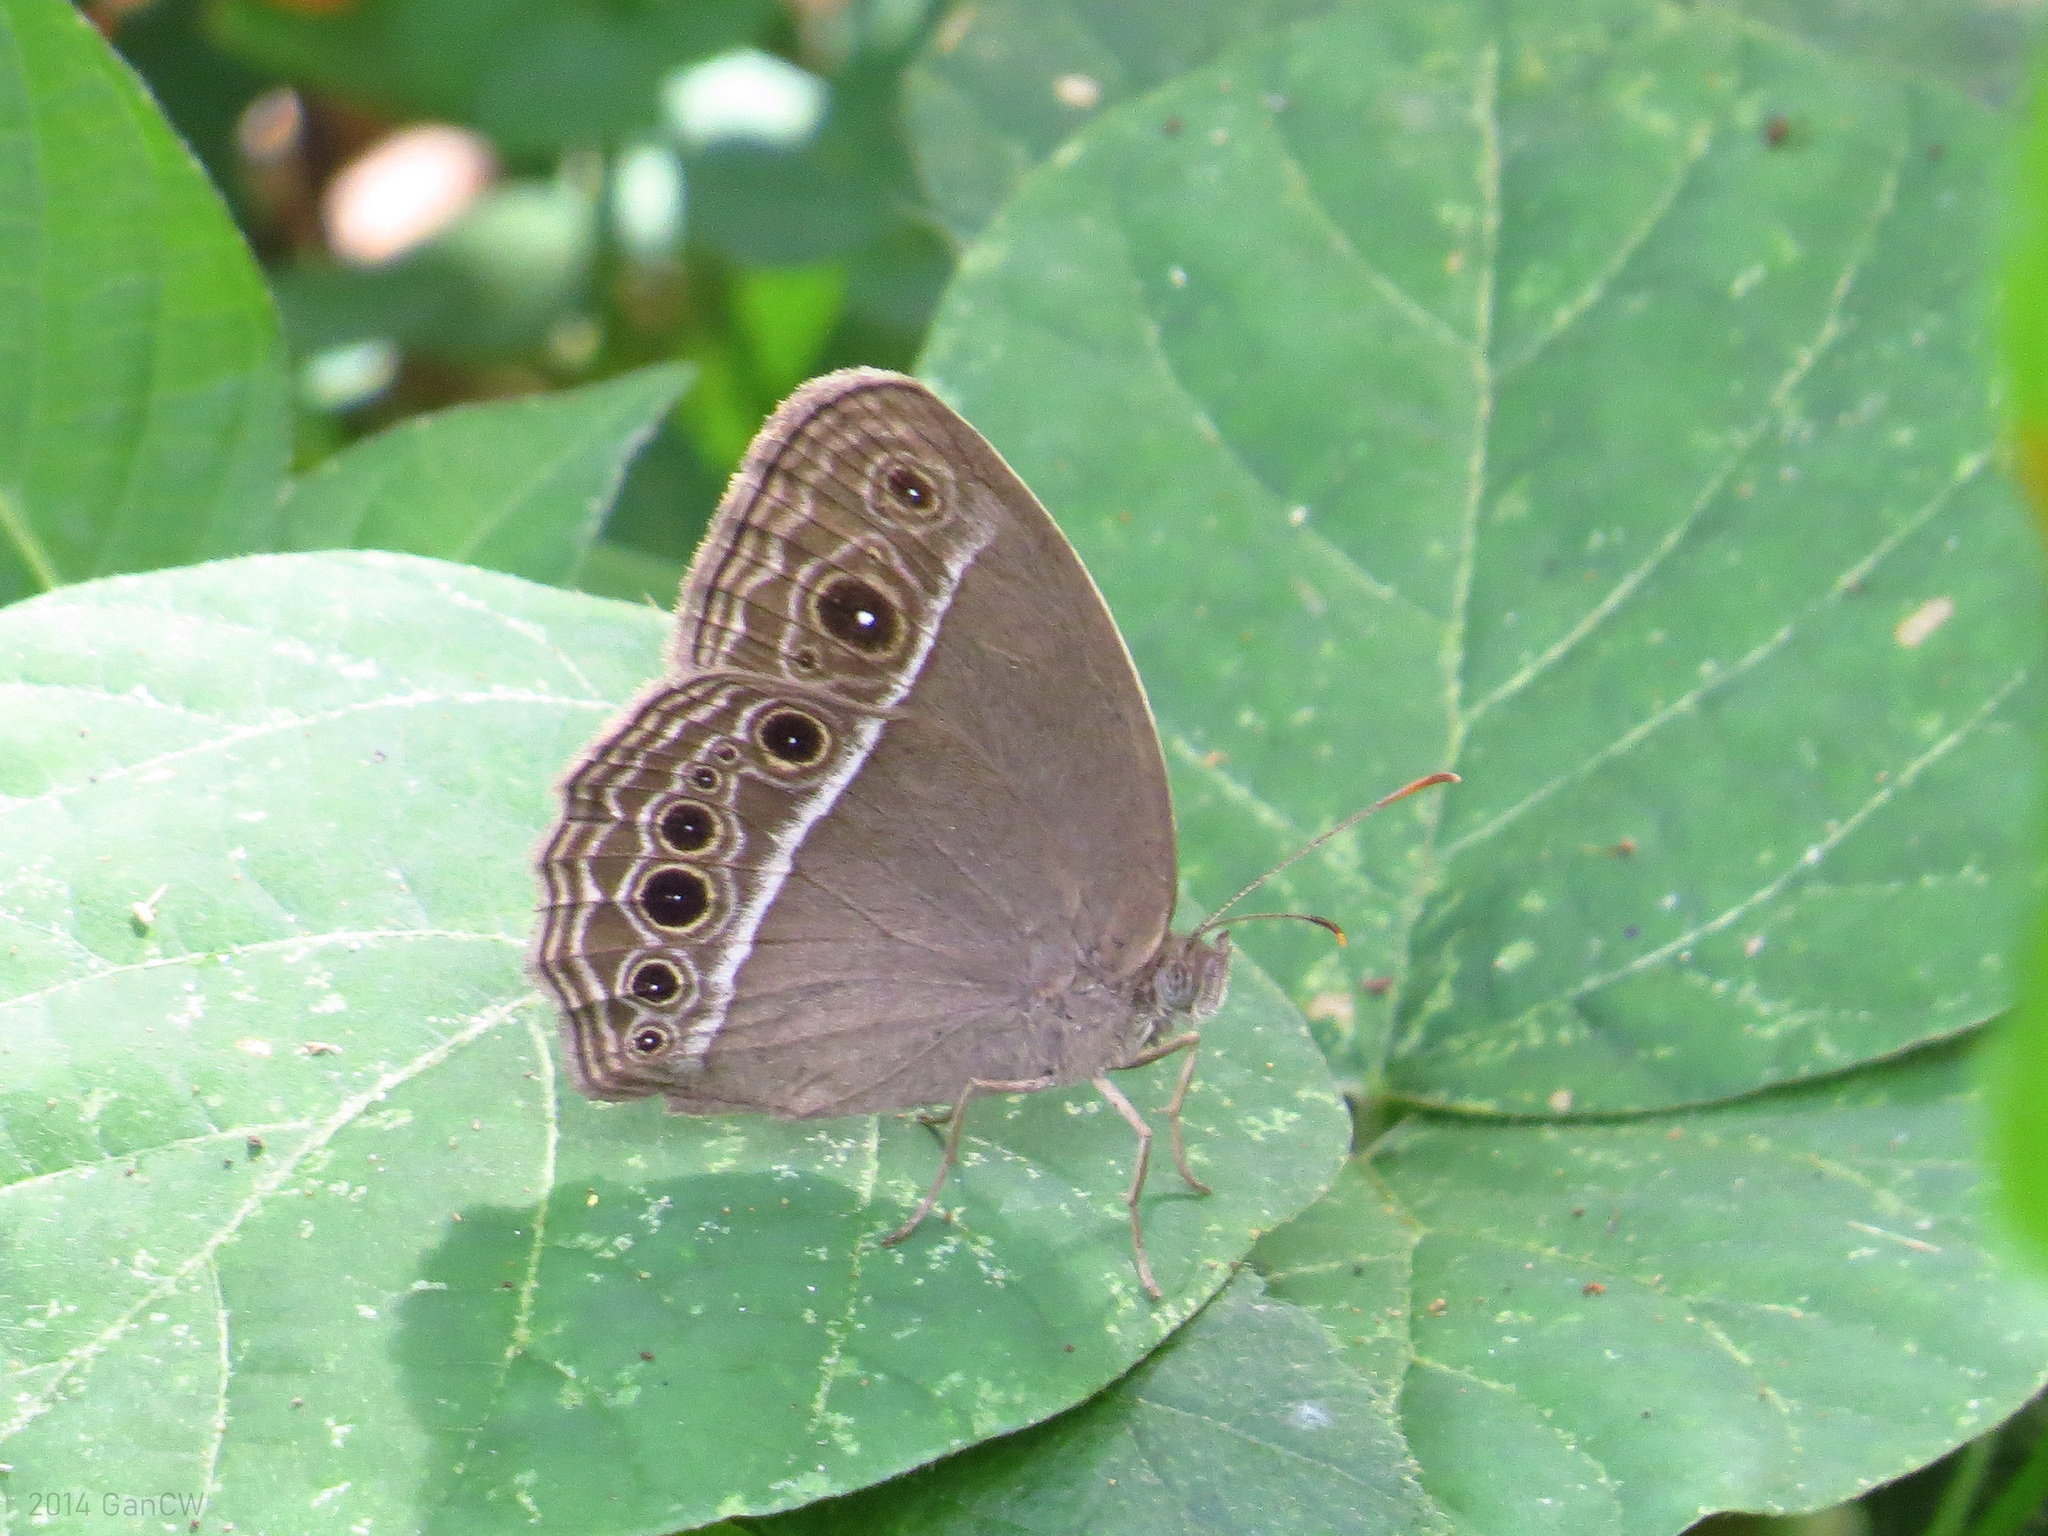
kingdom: Animalia
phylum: Arthropoda
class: Insecta
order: Lepidoptera
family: Nymphalidae
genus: Mycalesis
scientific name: Mycalesis mineus
